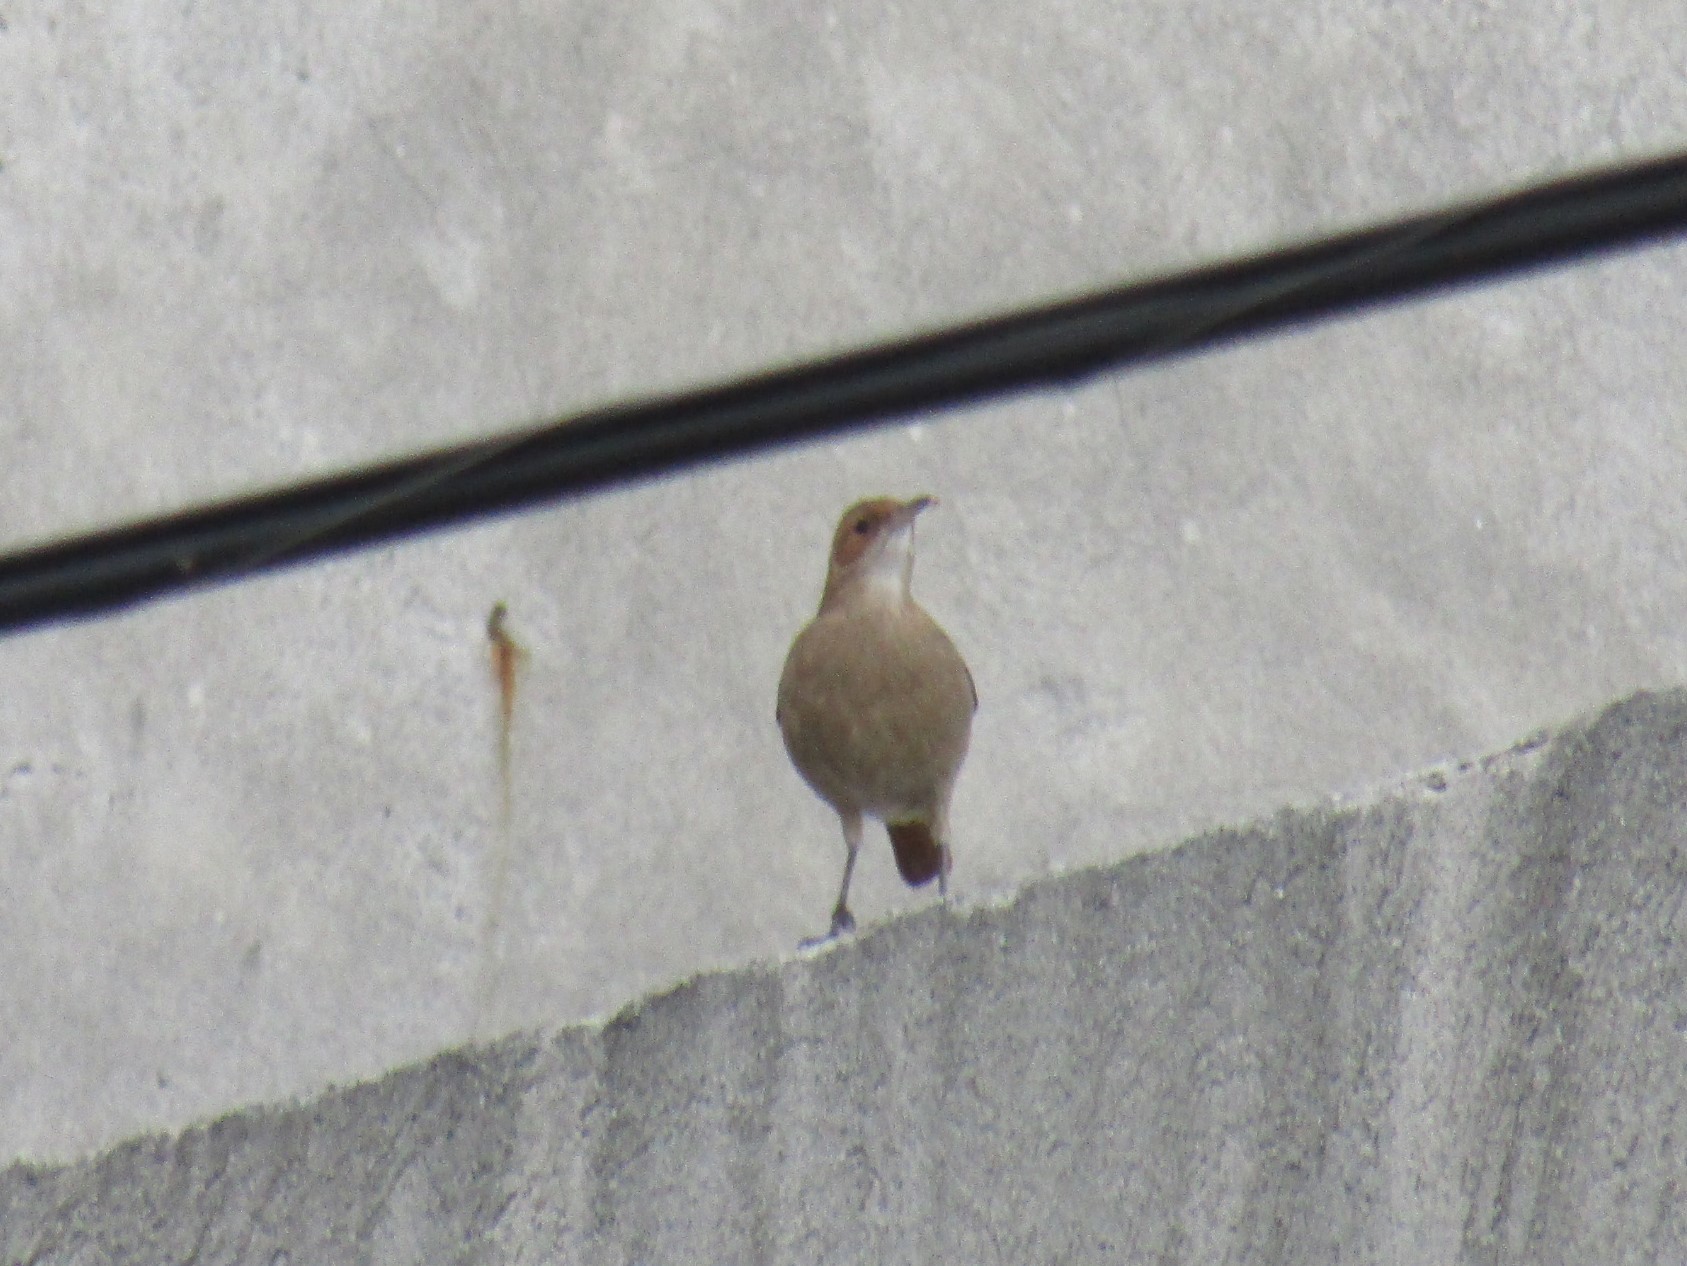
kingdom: Animalia
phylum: Chordata
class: Aves
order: Passeriformes
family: Furnariidae
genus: Furnarius
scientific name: Furnarius rufus
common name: Rufous hornero
